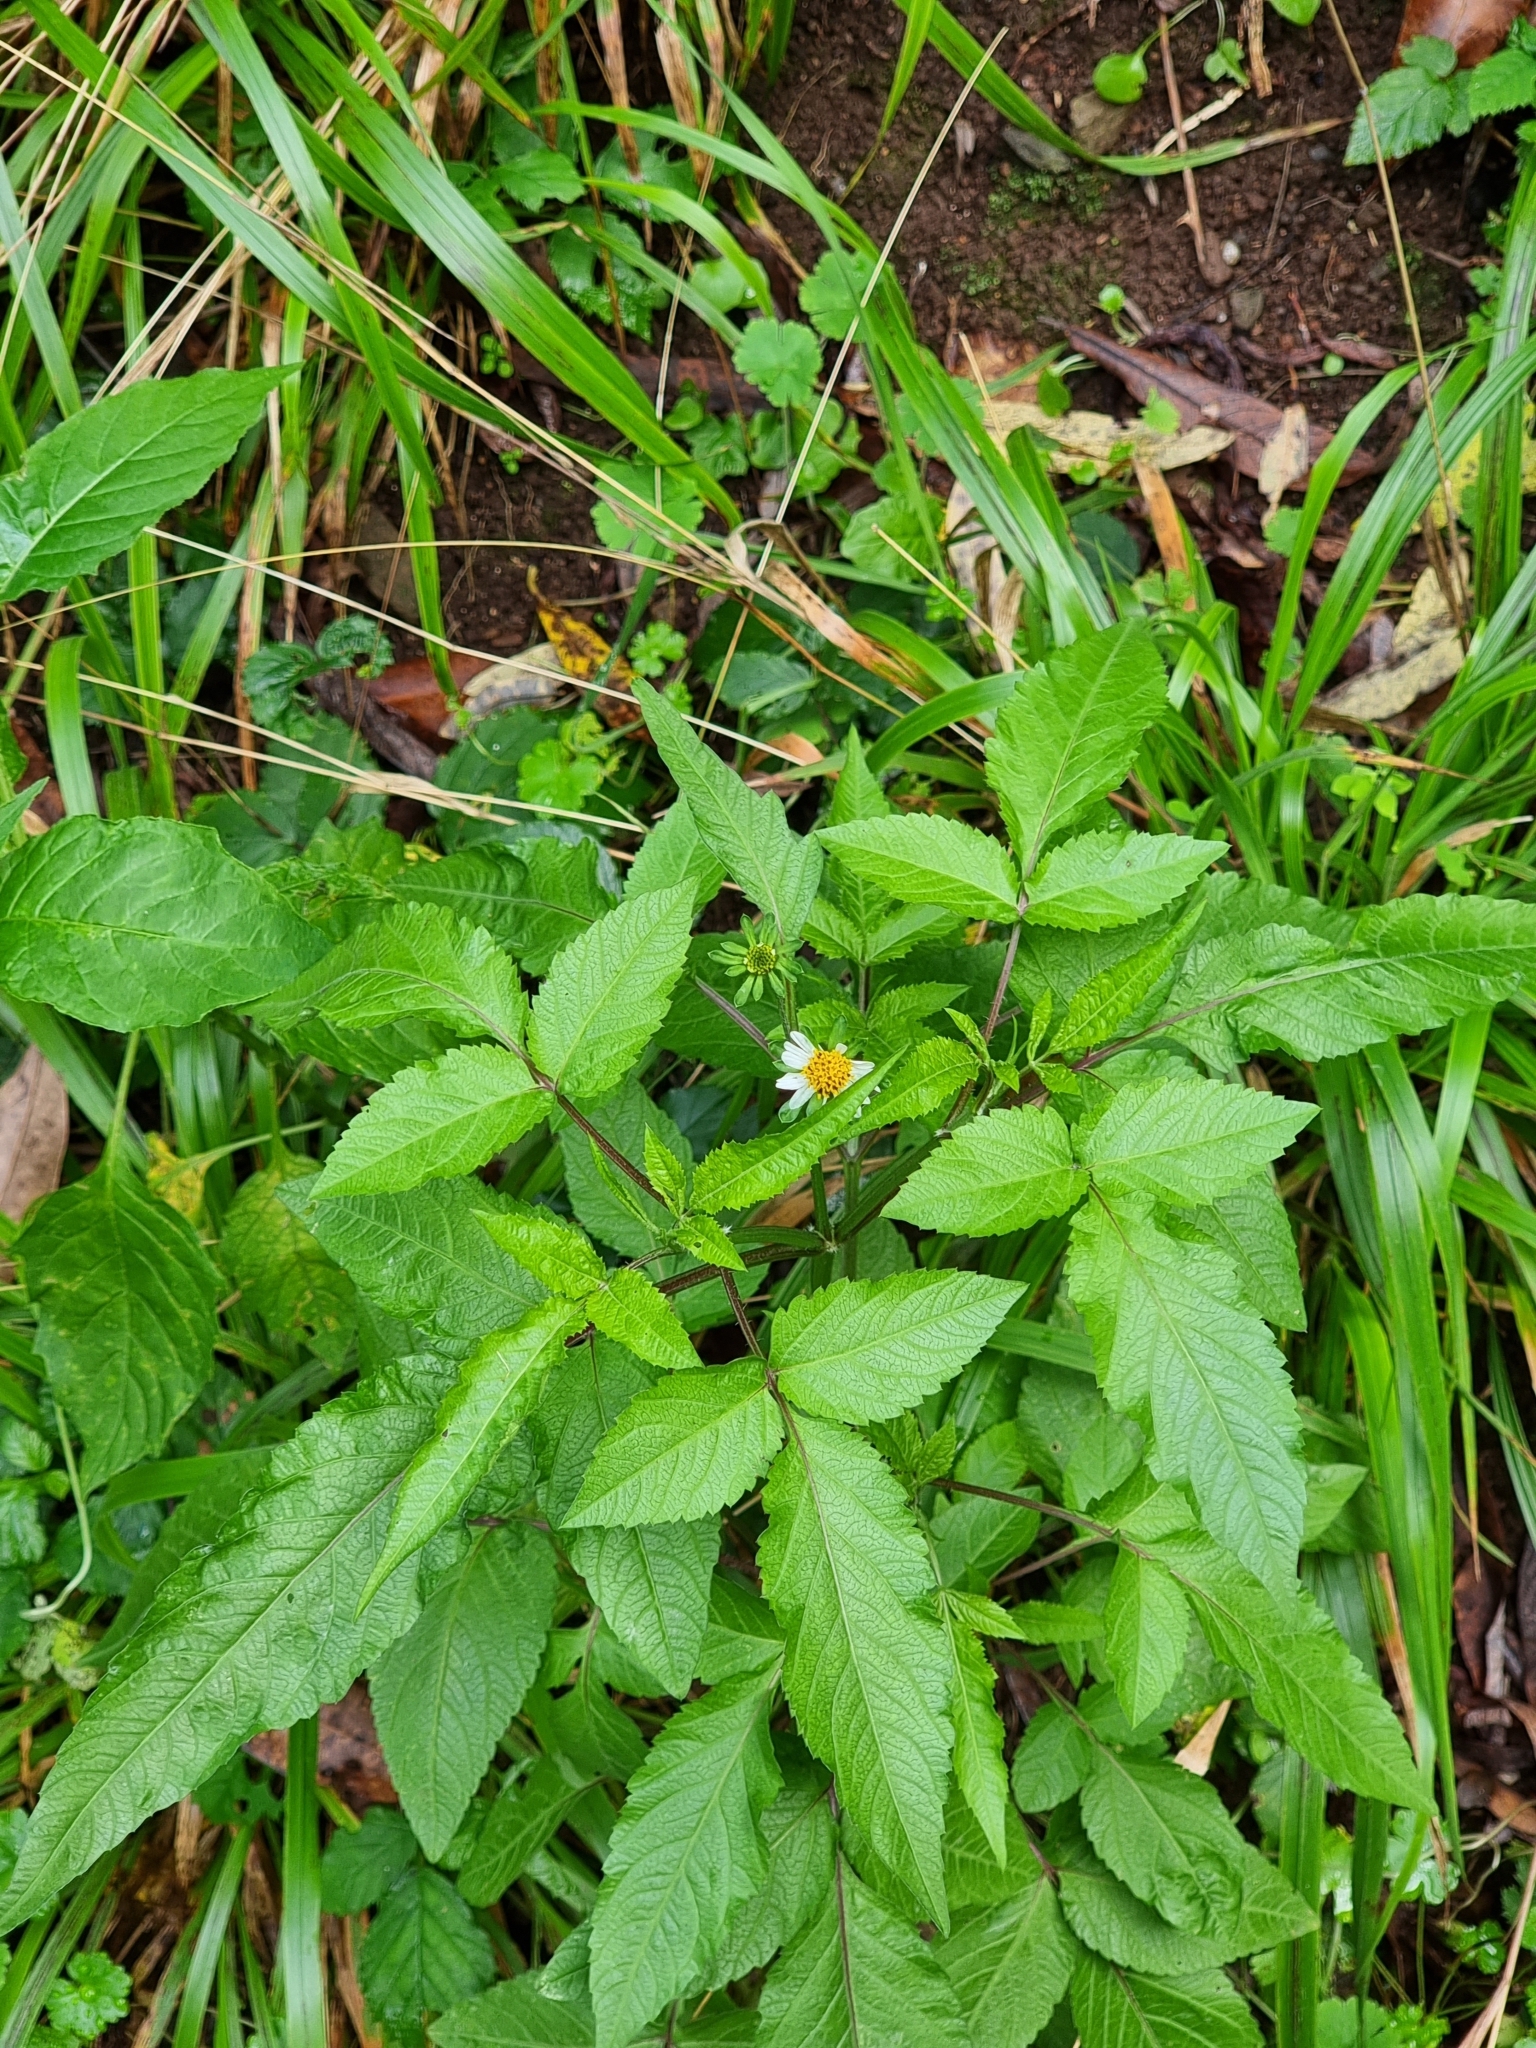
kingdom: Plantae
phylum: Tracheophyta
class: Magnoliopsida
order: Asterales
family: Asteraceae
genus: Bidens
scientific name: Bidens pilosa
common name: Black-jack
